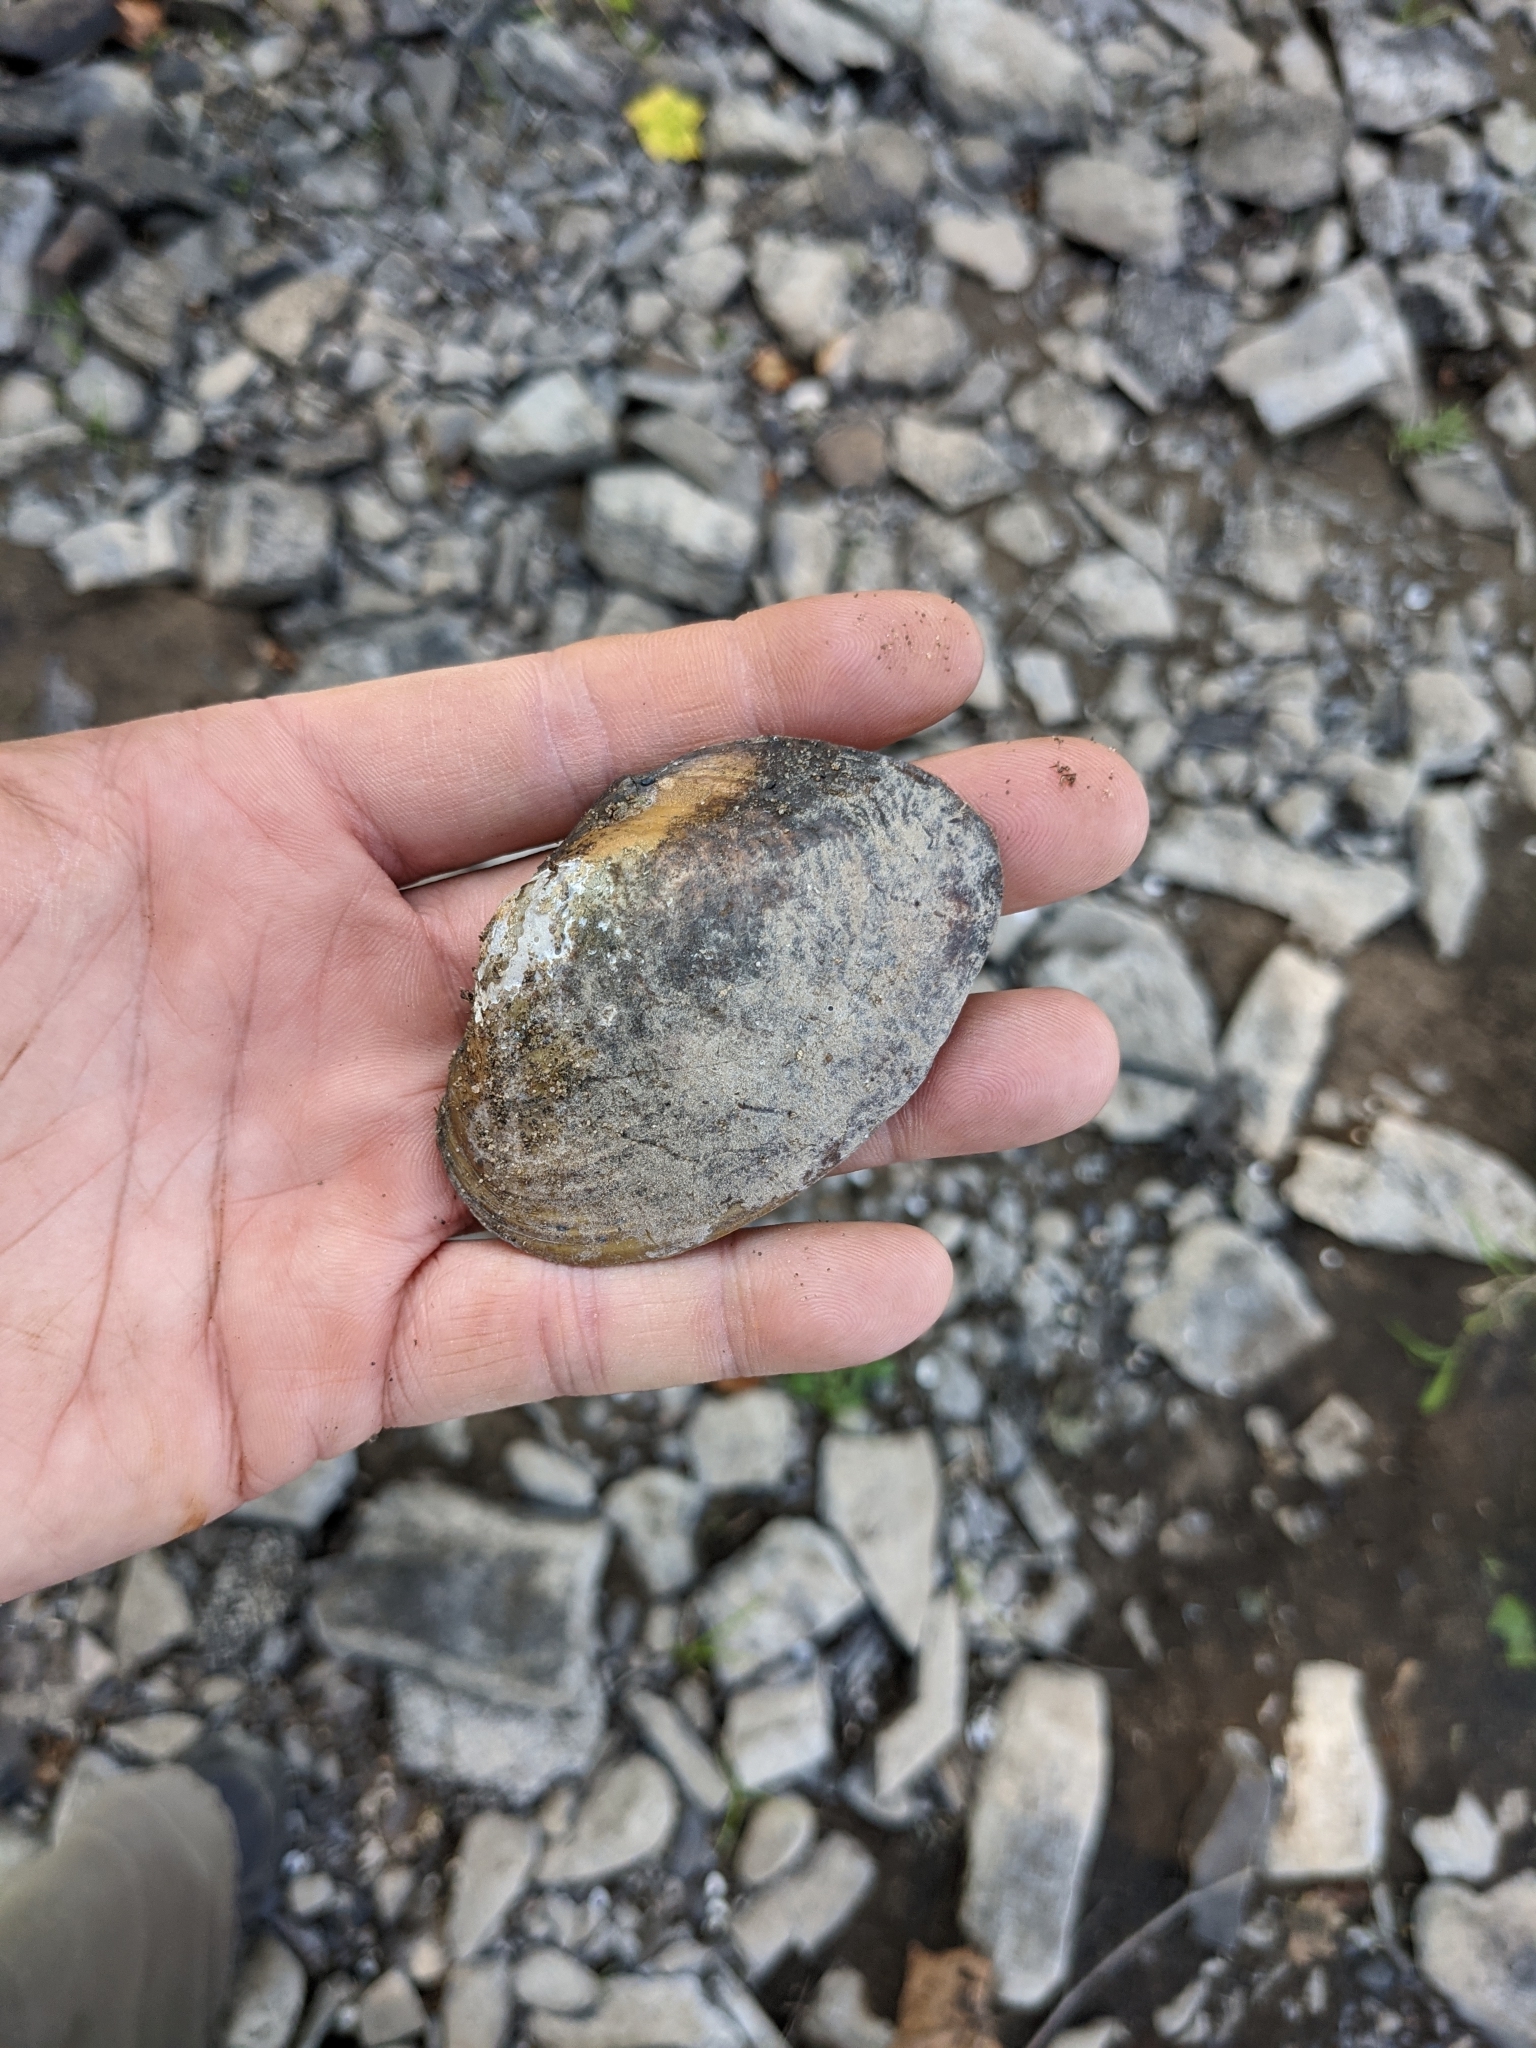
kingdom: Animalia
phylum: Mollusca
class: Bivalvia
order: Unionida
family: Unionidae
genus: Lampsilis
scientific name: Lampsilis cariosa
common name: Yellow lampmussel
